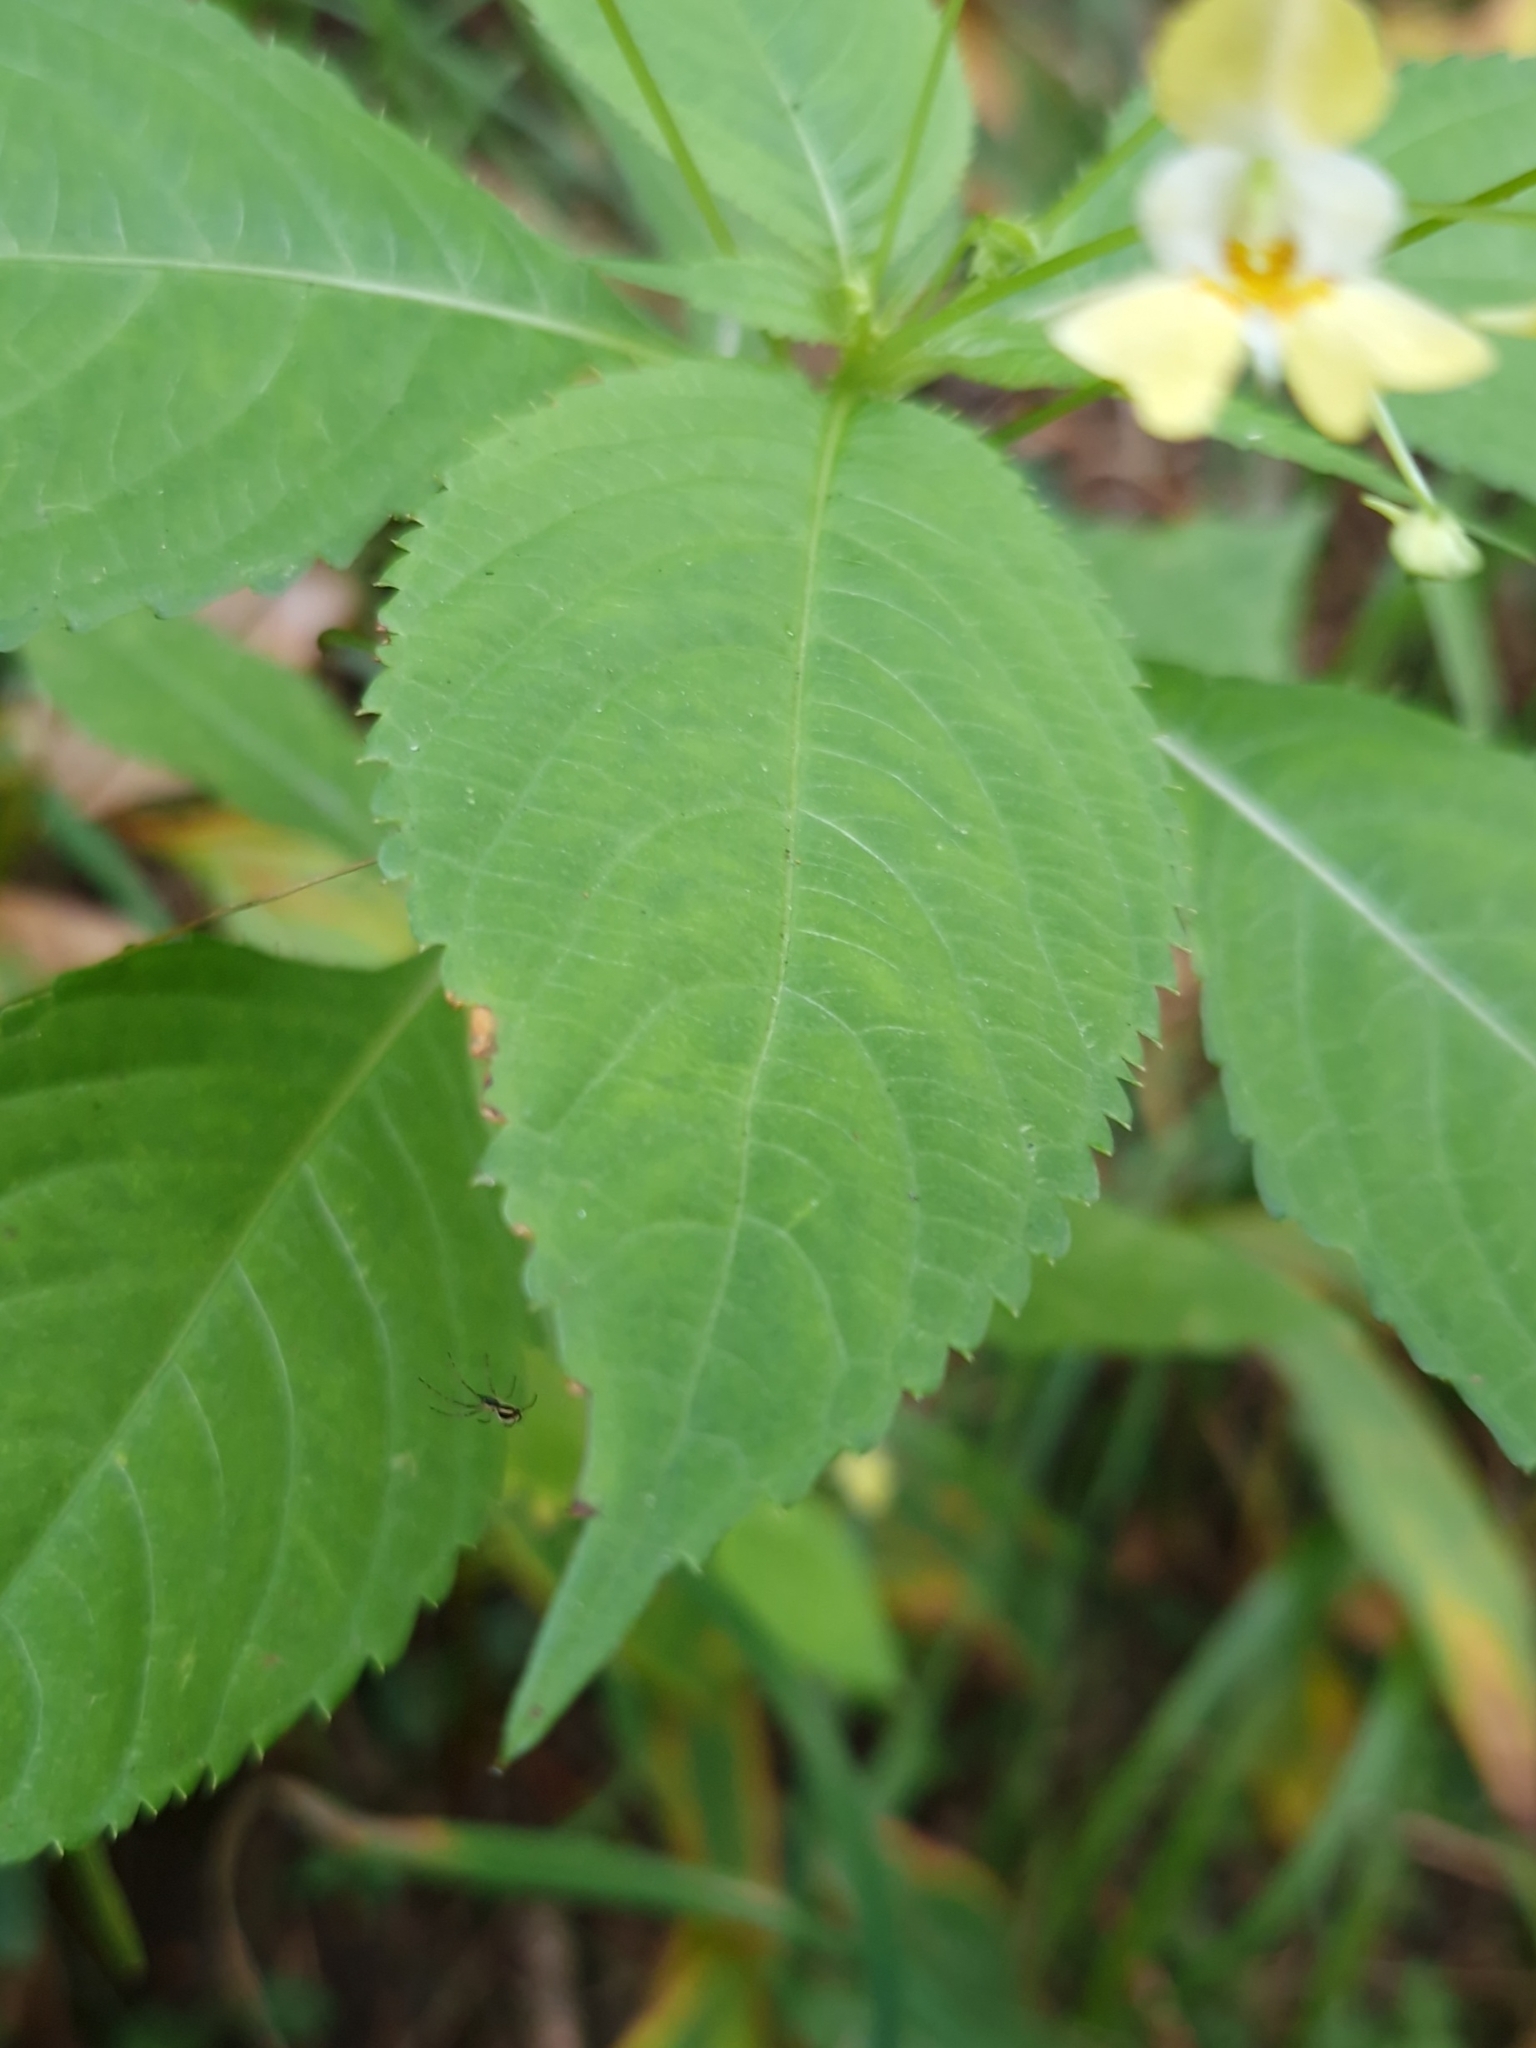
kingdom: Plantae
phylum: Tracheophyta
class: Magnoliopsida
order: Ericales
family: Balsaminaceae
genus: Impatiens
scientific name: Impatiens parviflora
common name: Small balsam
